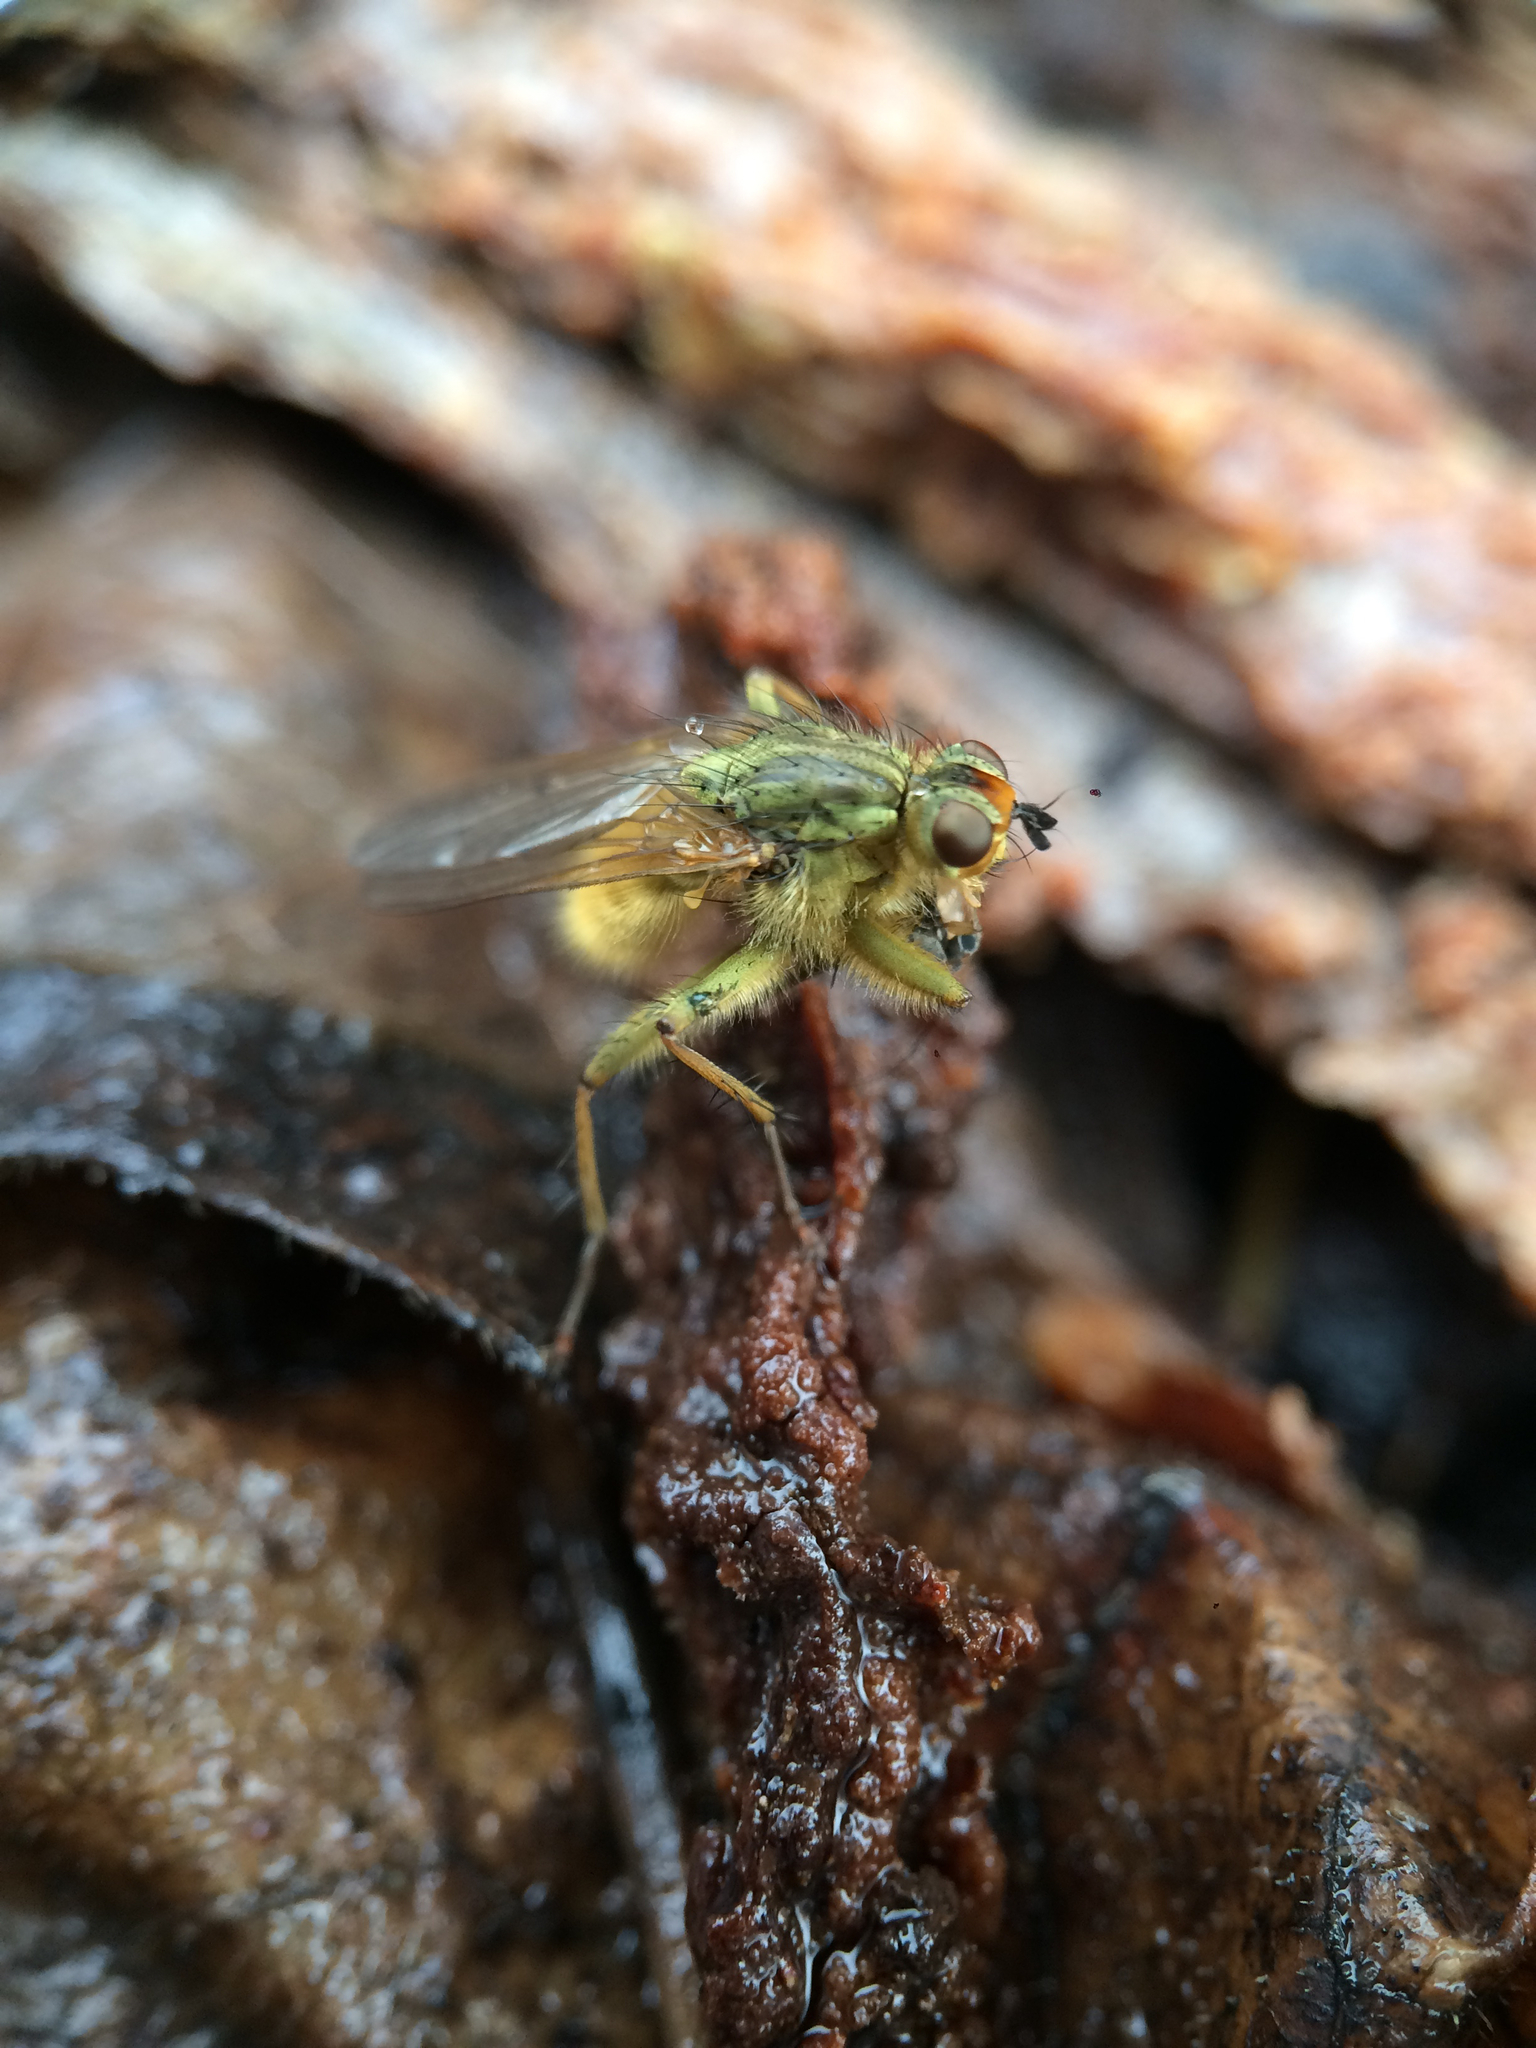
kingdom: Animalia
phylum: Arthropoda
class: Insecta
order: Diptera
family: Scathophagidae
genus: Scathophaga
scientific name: Scathophaga stercoraria
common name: Yellow dung fly
